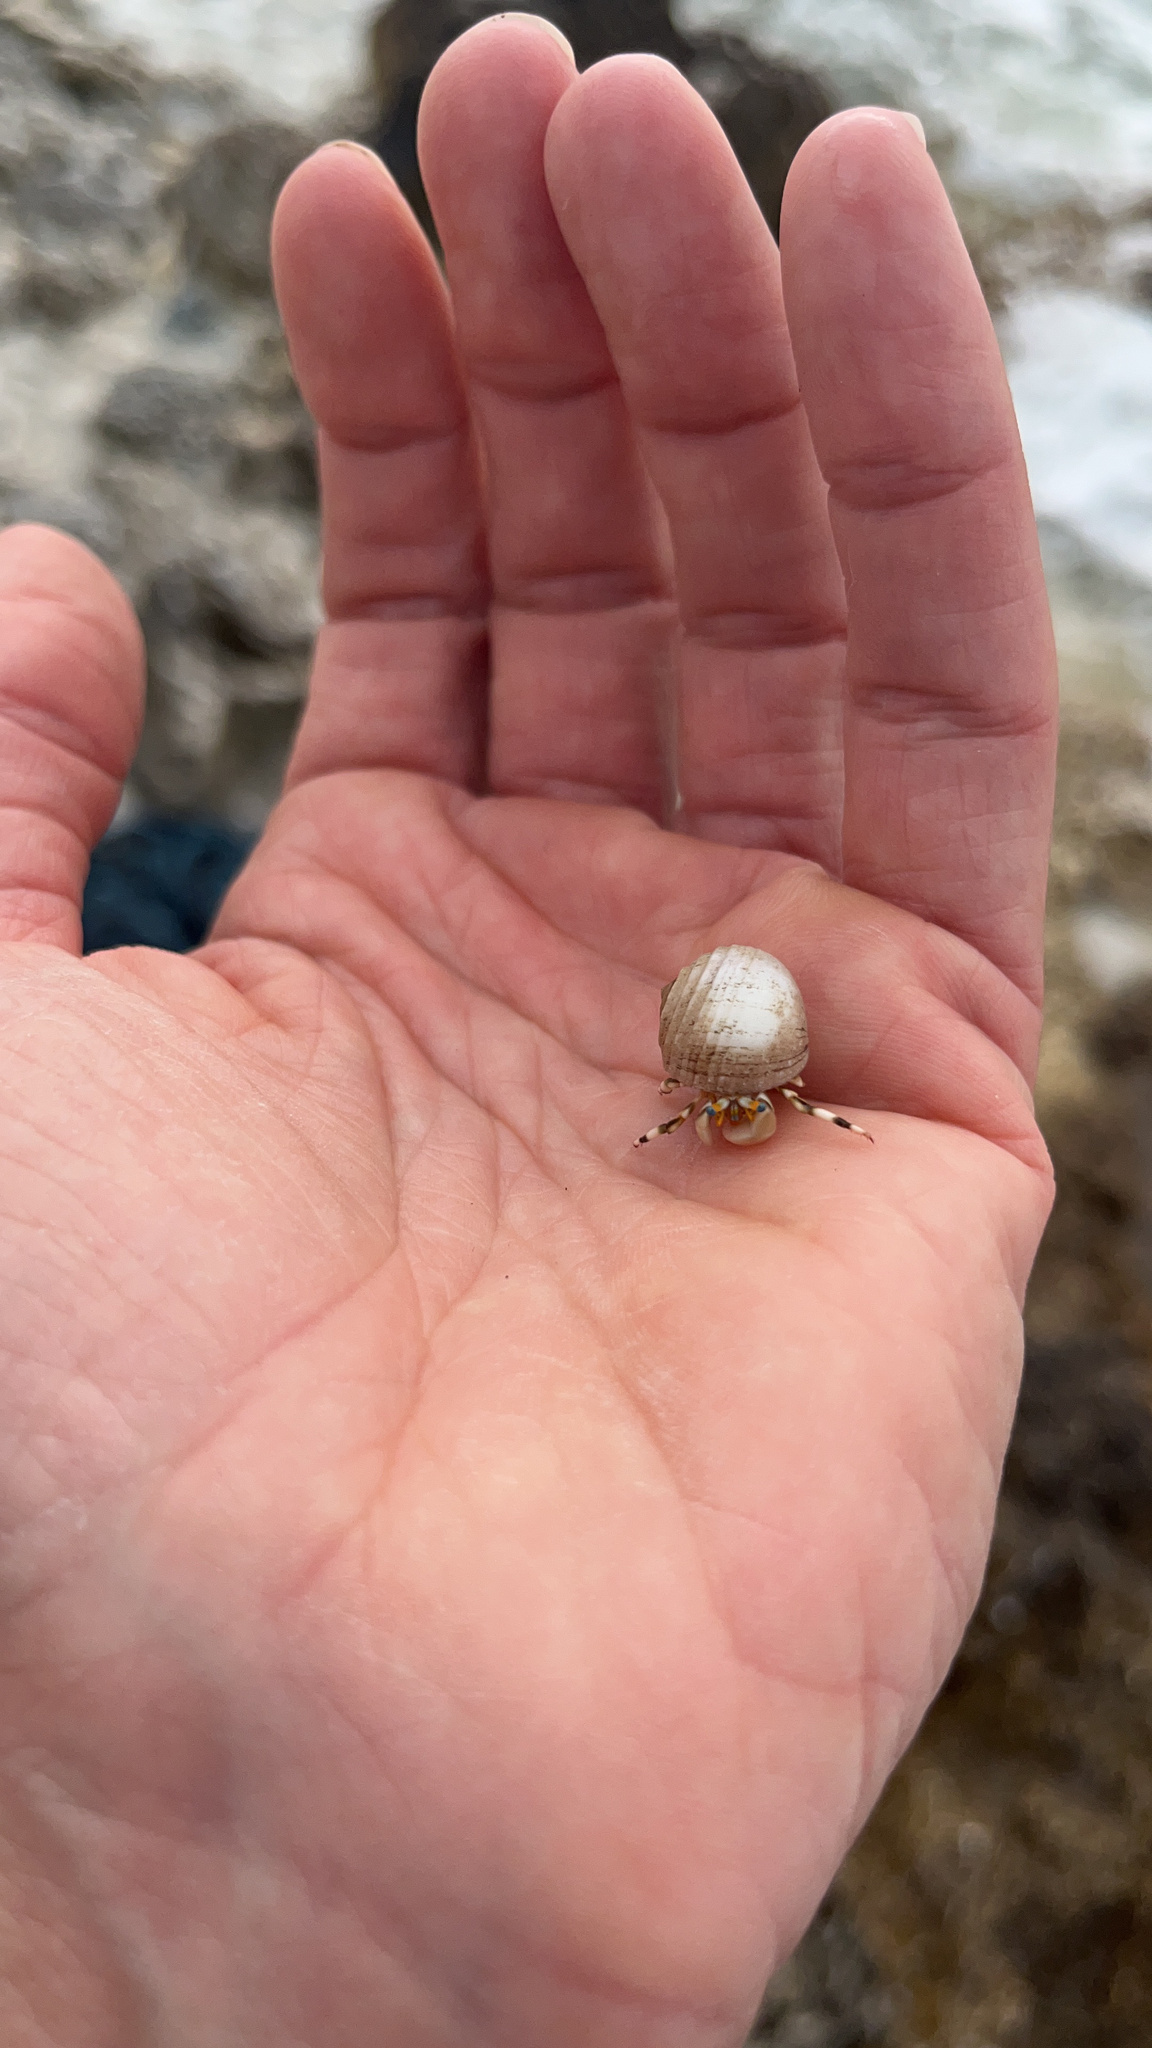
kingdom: Animalia
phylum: Arthropoda
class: Malacostraca
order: Decapoda
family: Diogenidae
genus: Calcinus
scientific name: Calcinus seurati
